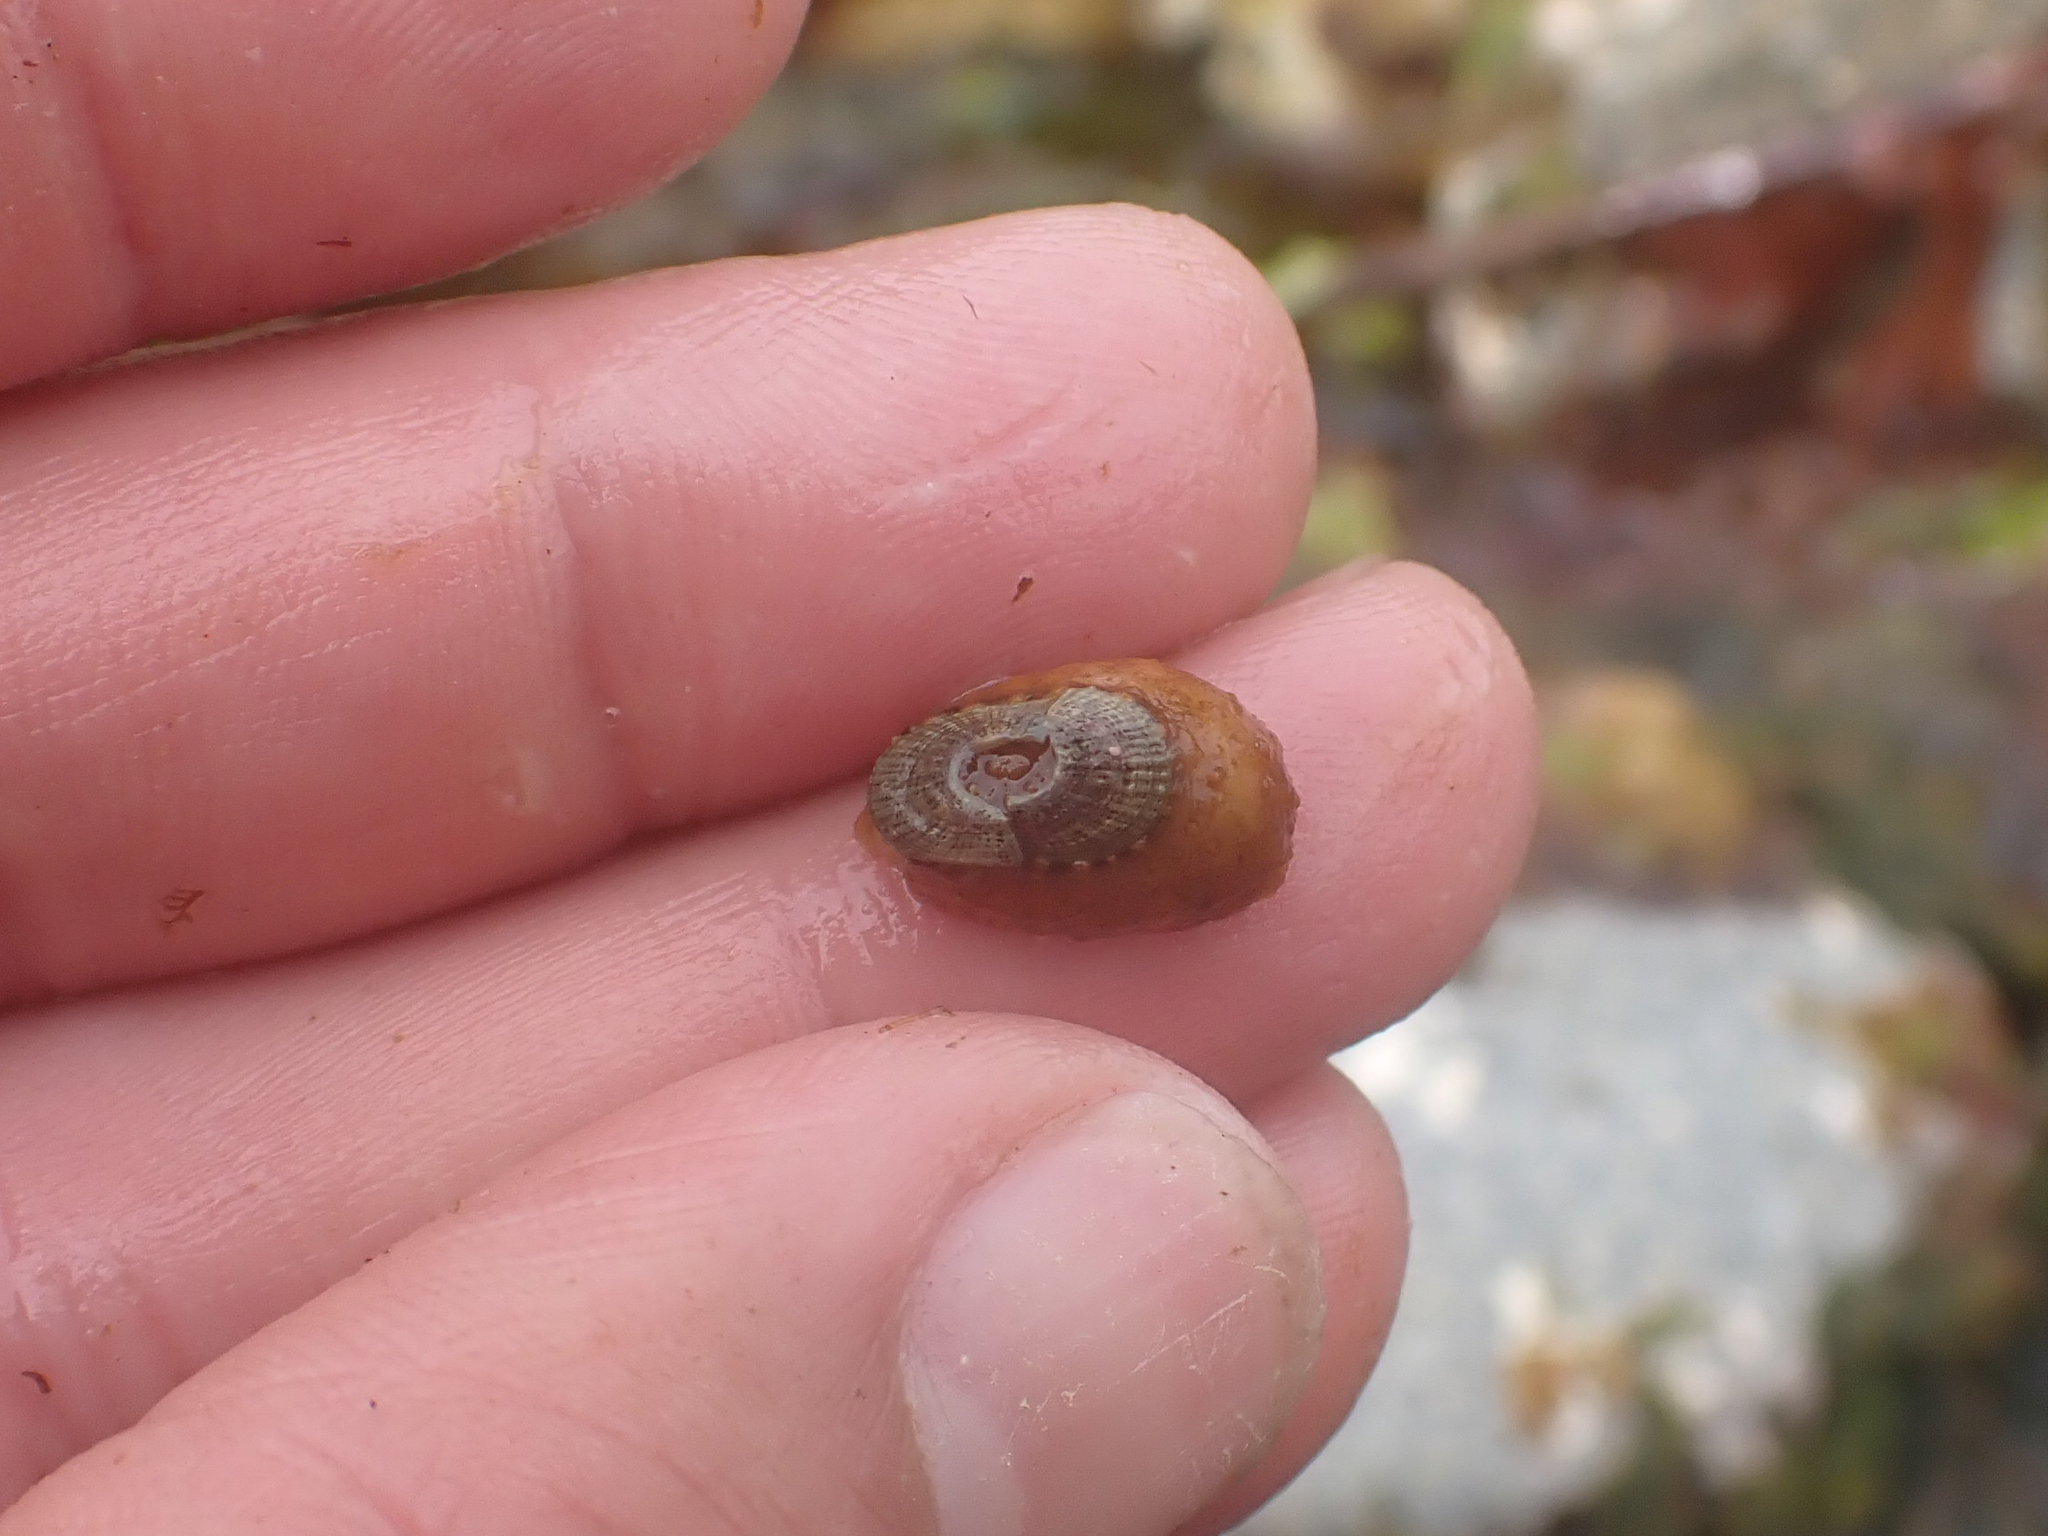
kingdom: Animalia
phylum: Mollusca
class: Gastropoda
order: Lepetellida
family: Fissurellidae
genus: Fissurellidea
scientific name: Fissurellidea bimaculata
